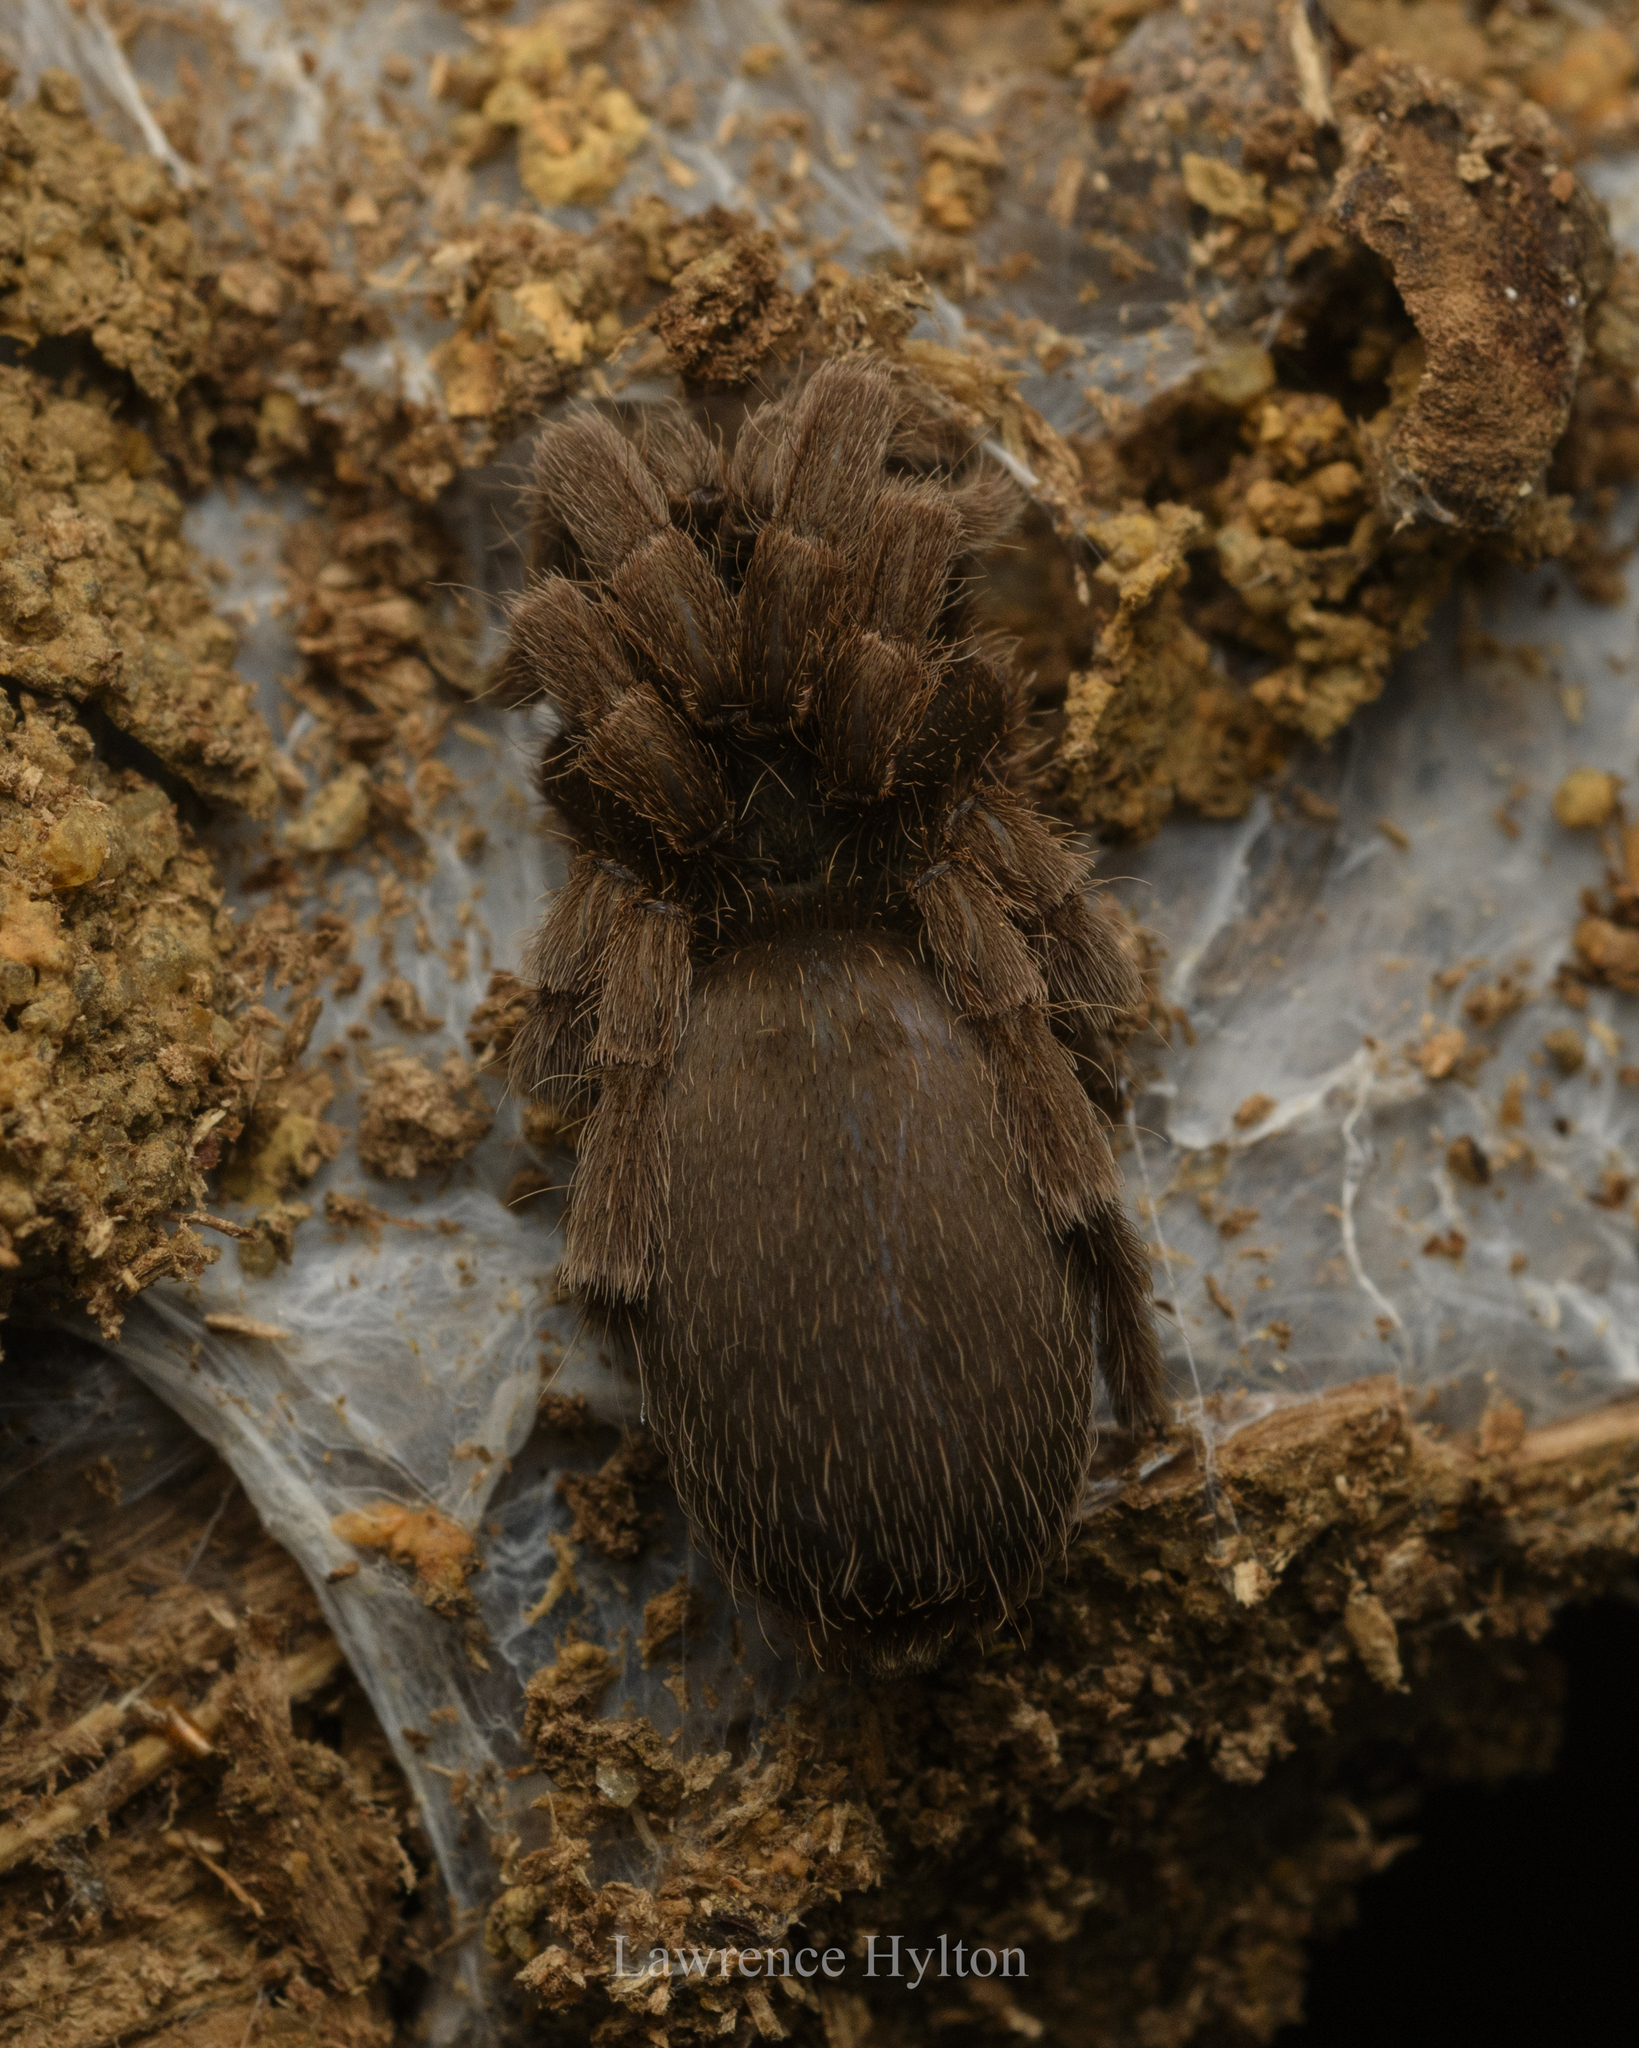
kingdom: Animalia
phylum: Arthropoda
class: Arachnida
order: Araneae
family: Theraphosidae
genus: Phlogiellus
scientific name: Phlogiellus
